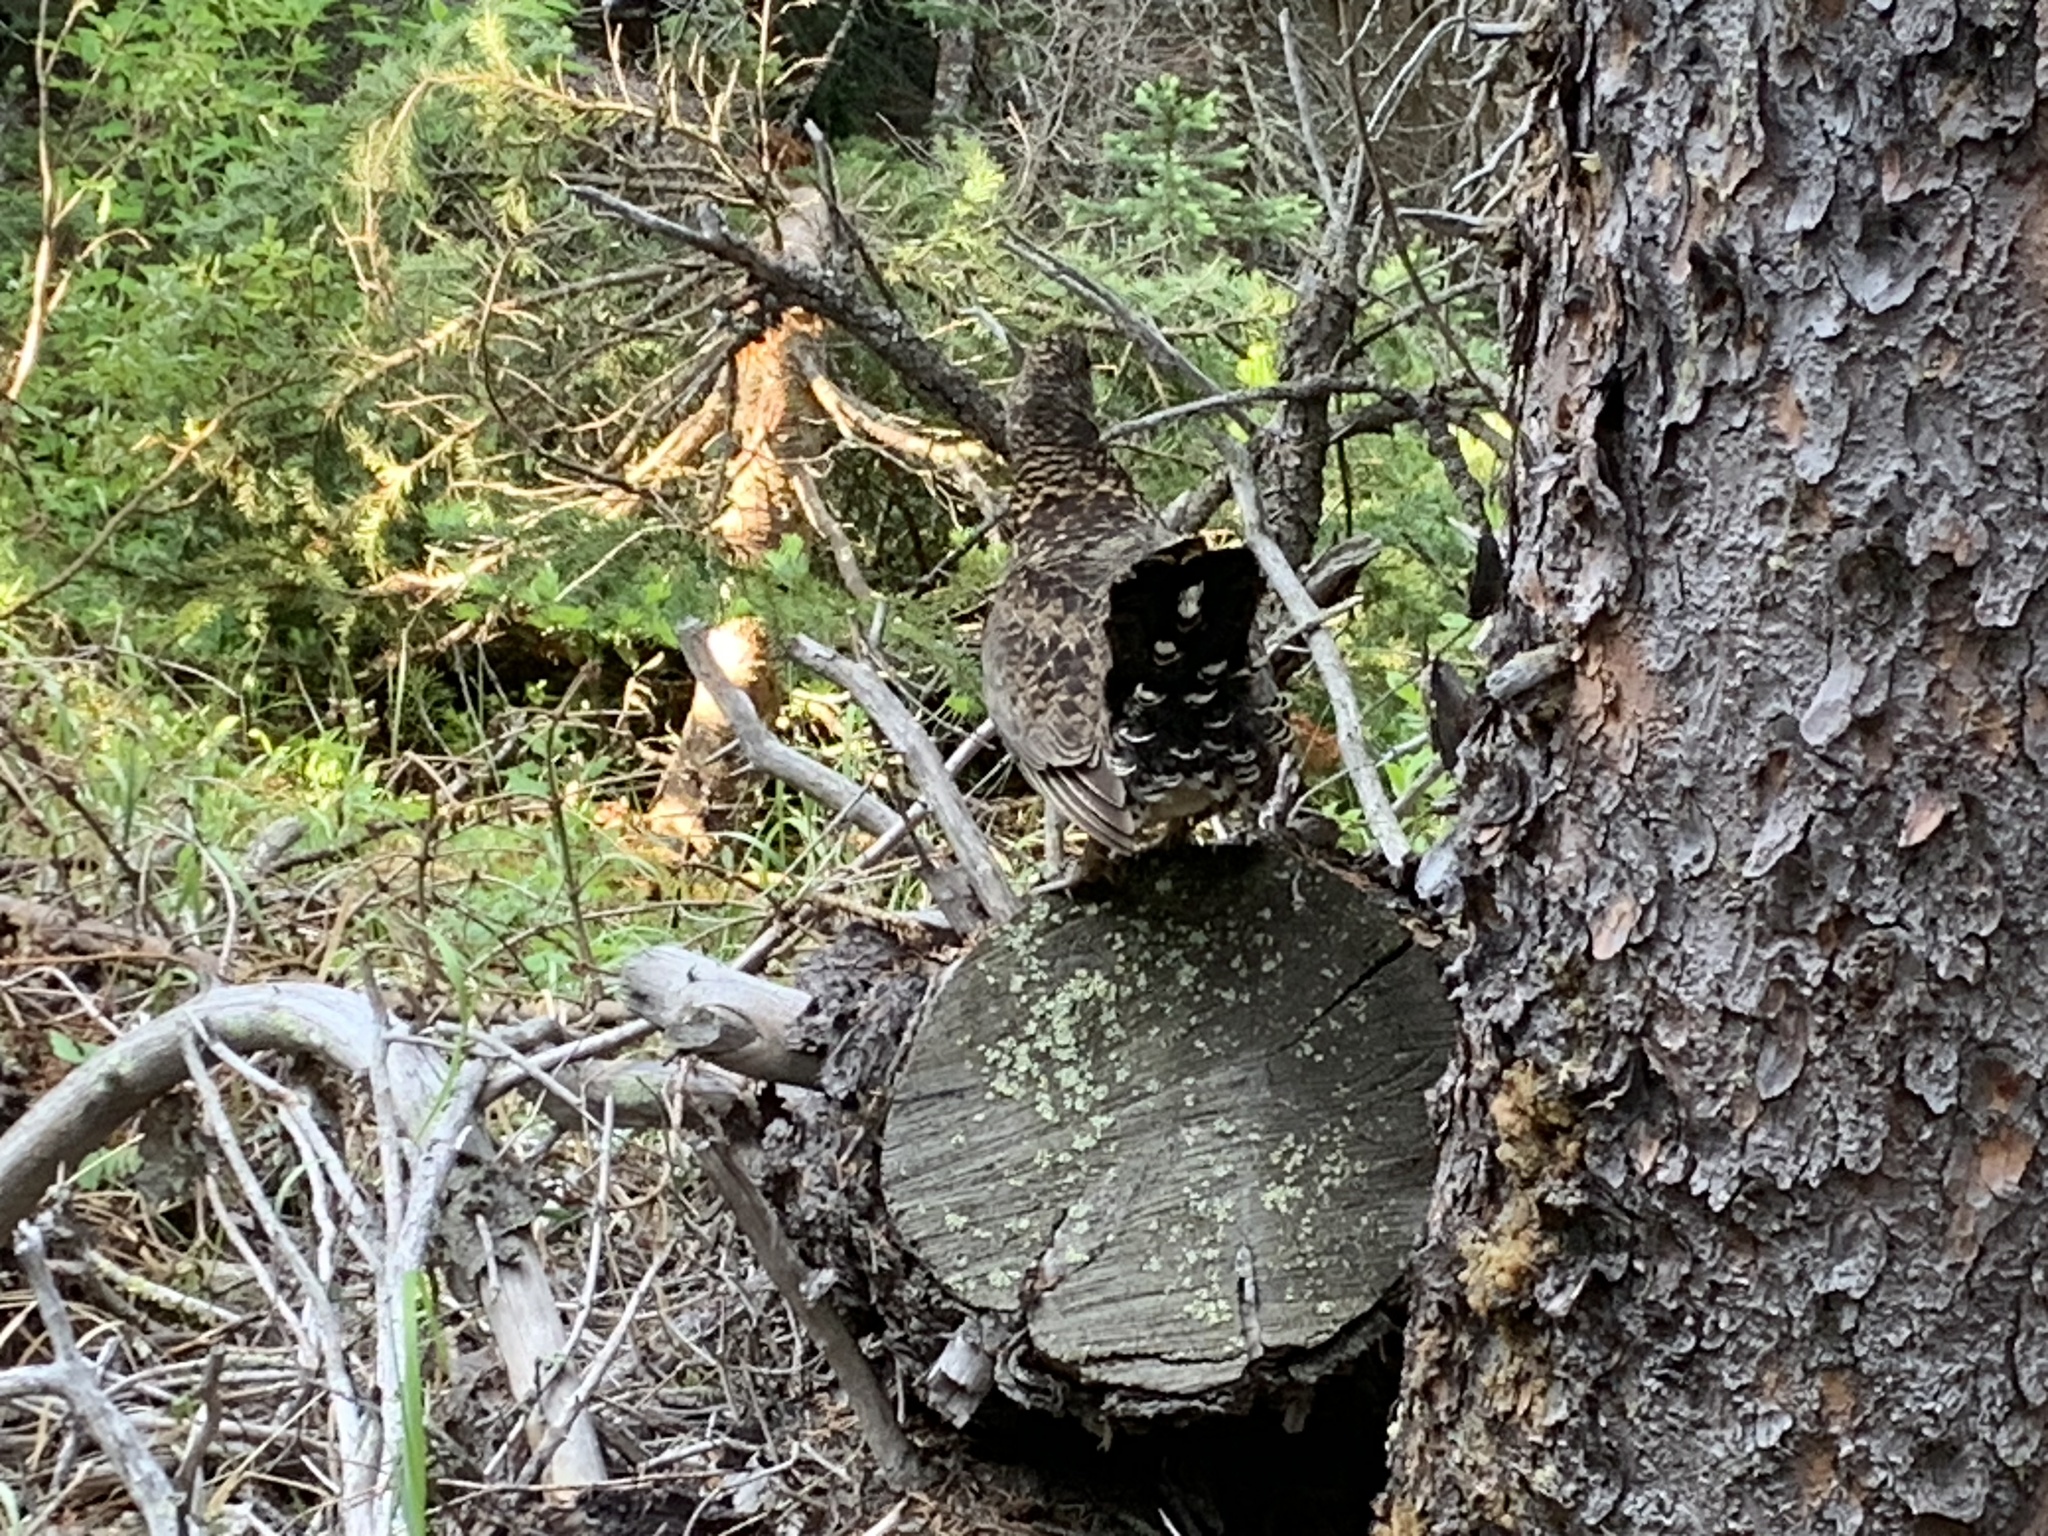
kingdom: Animalia
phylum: Chordata
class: Aves
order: Galliformes
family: Phasianidae
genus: Canachites
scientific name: Canachites canadensis
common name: Spruce grouse
